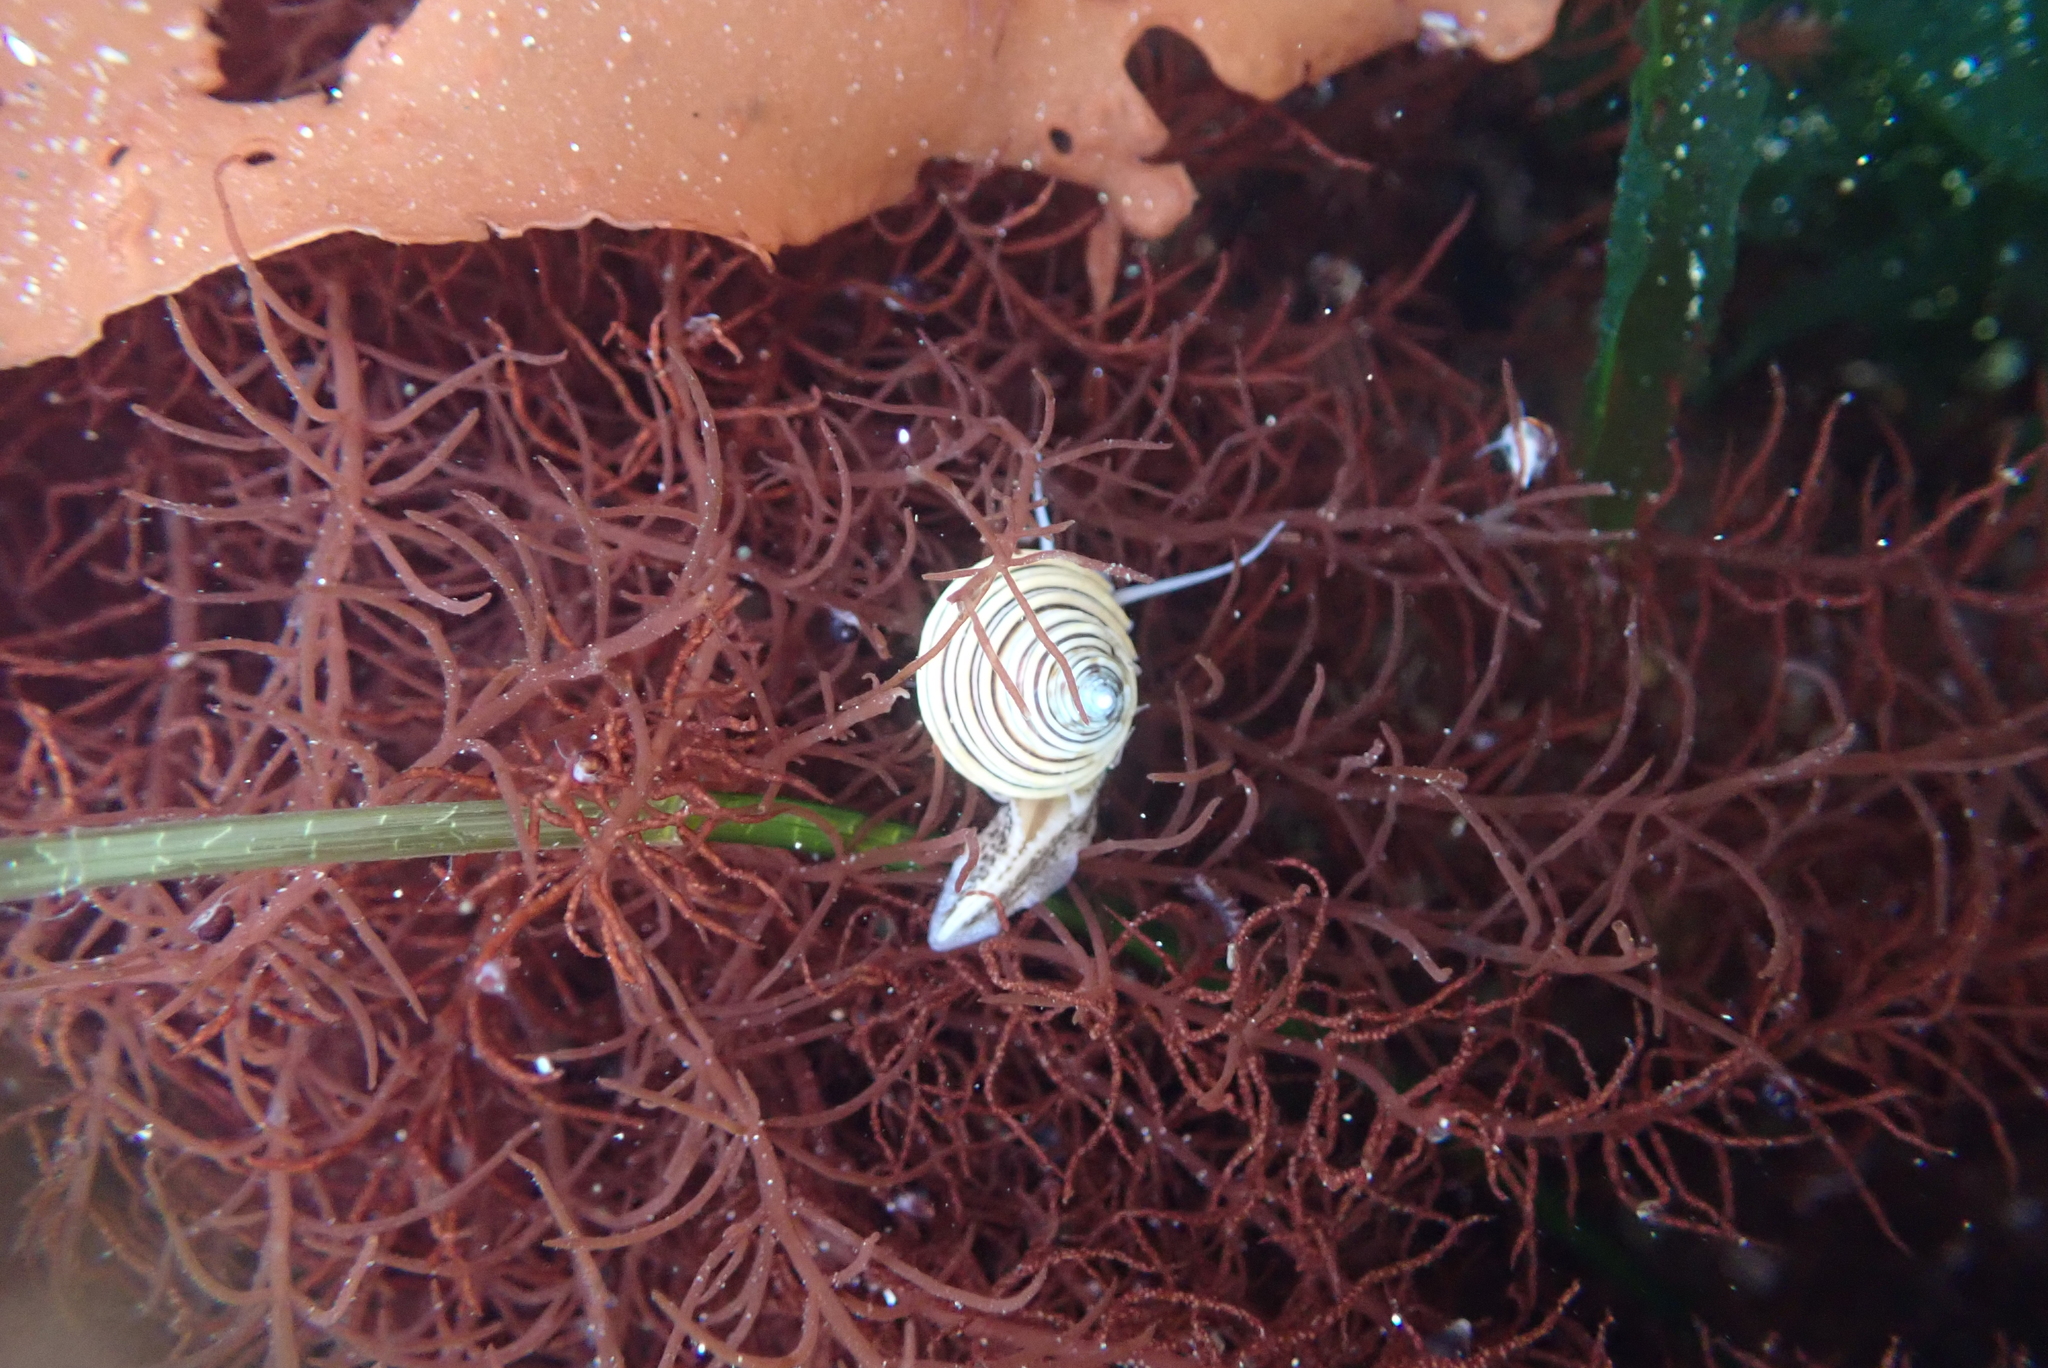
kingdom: Animalia
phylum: Mollusca
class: Gastropoda
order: Trochida
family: Calliostomatidae
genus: Calliostoma
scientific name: Calliostoma canaliculatum
